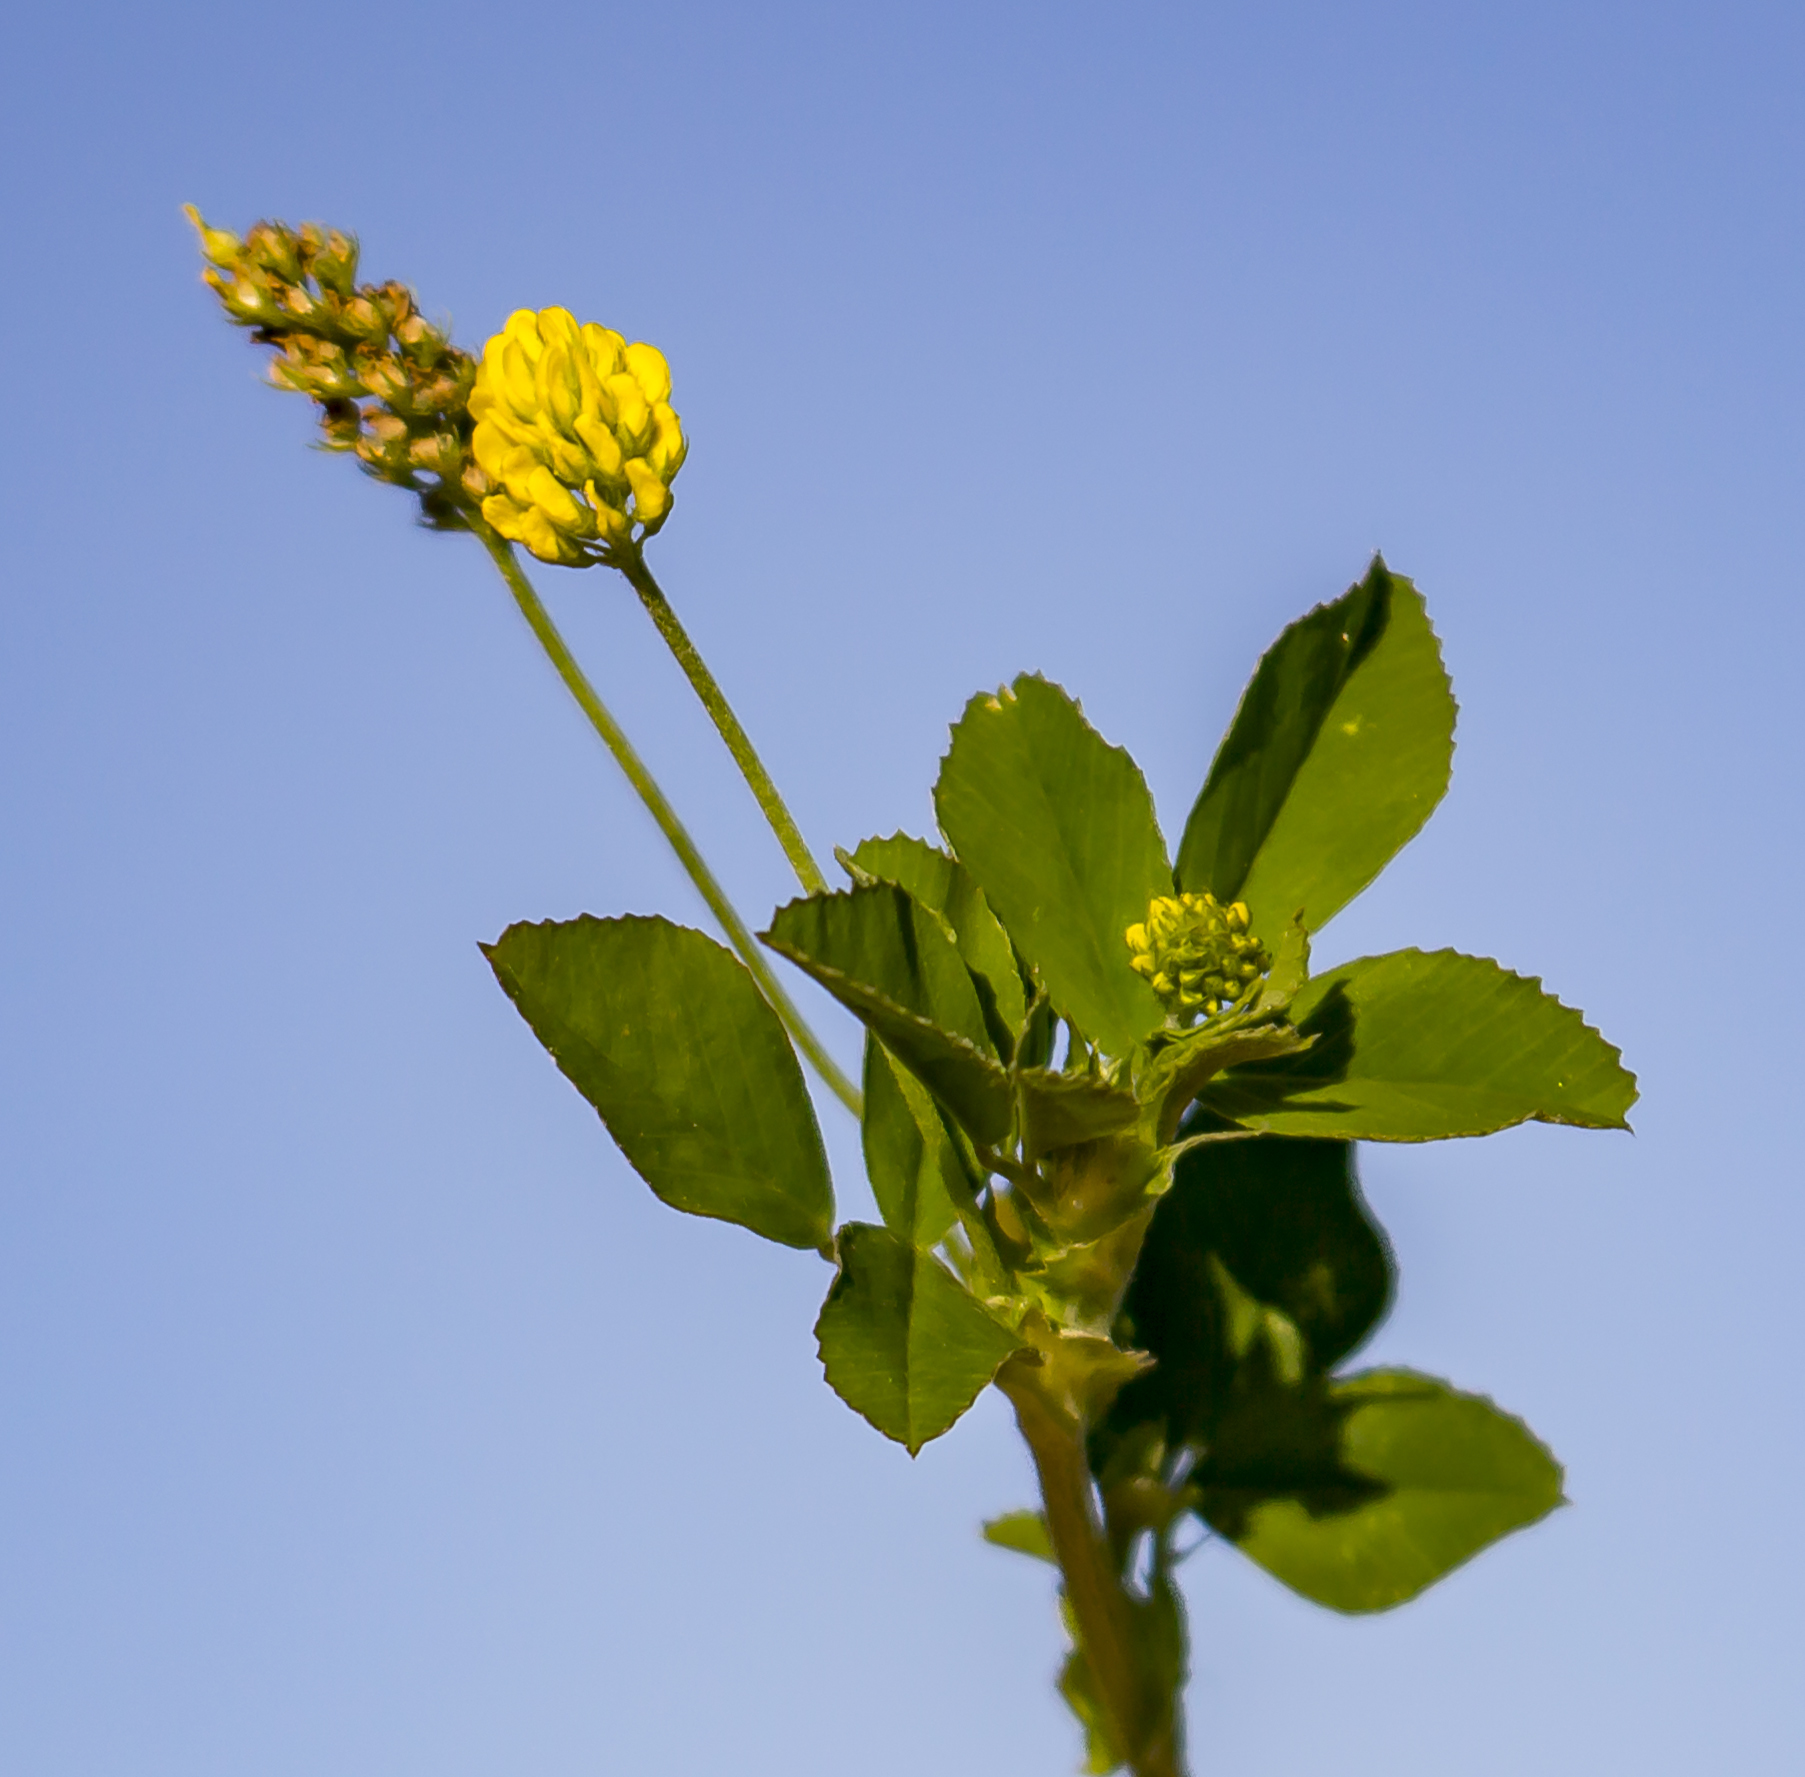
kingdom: Plantae
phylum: Tracheophyta
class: Magnoliopsida
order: Fabales
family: Fabaceae
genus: Medicago
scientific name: Medicago lupulina
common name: Black medick
